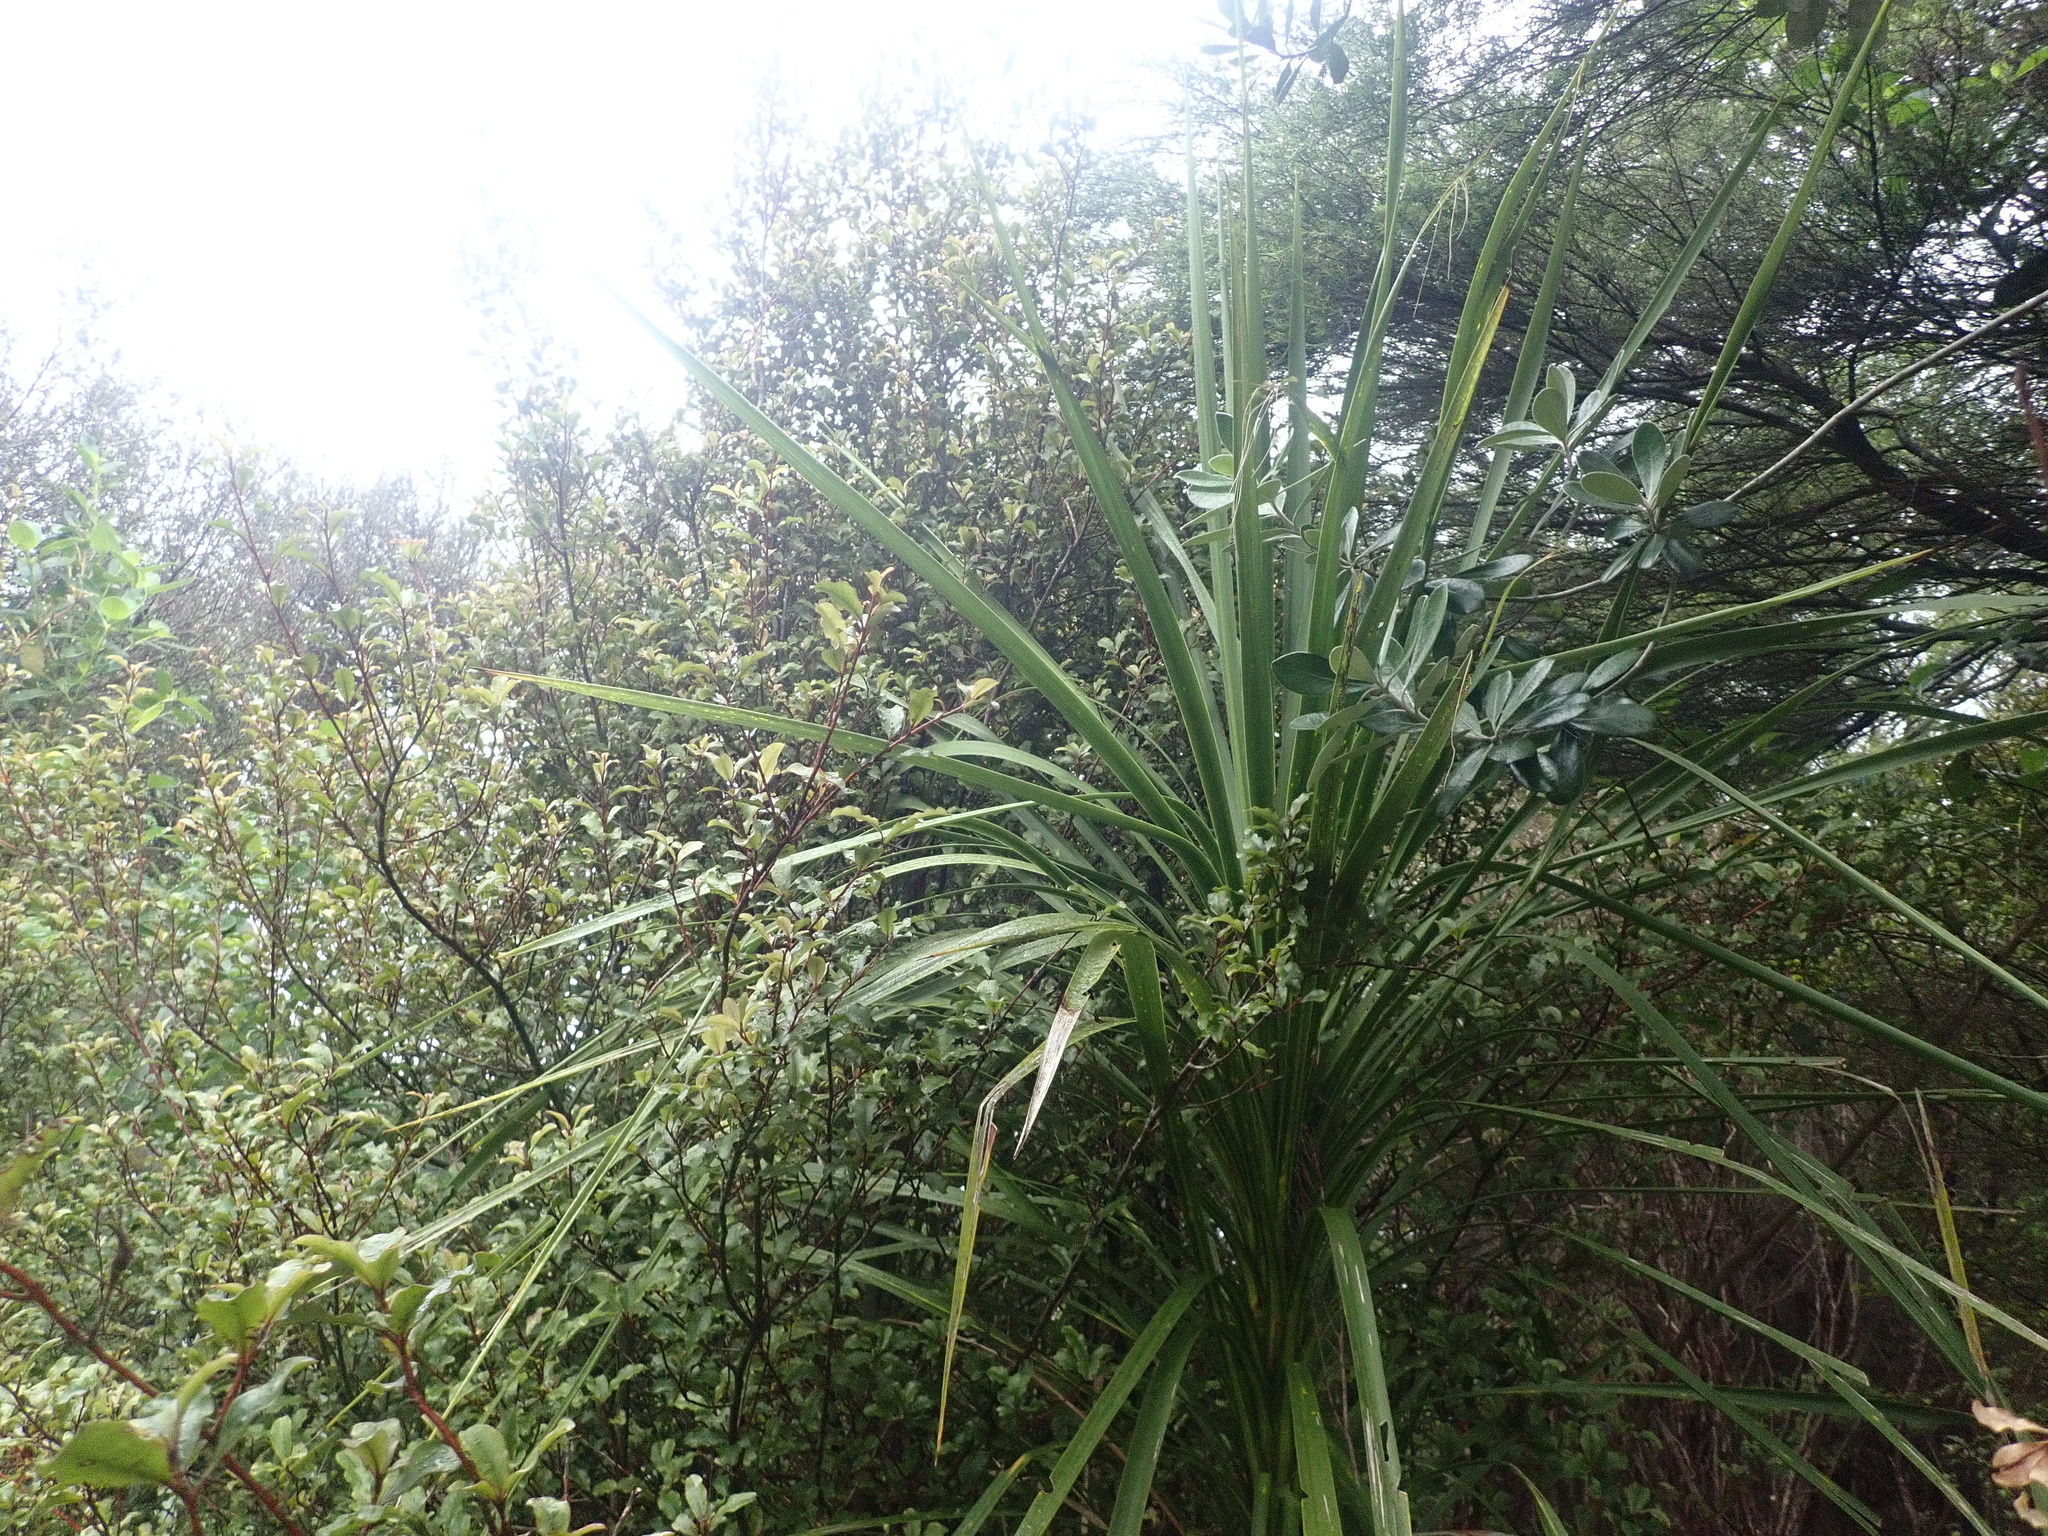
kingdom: Plantae
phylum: Tracheophyta
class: Liliopsida
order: Asparagales
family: Asparagaceae
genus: Cordyline
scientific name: Cordyline australis
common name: Cabbage-palm
